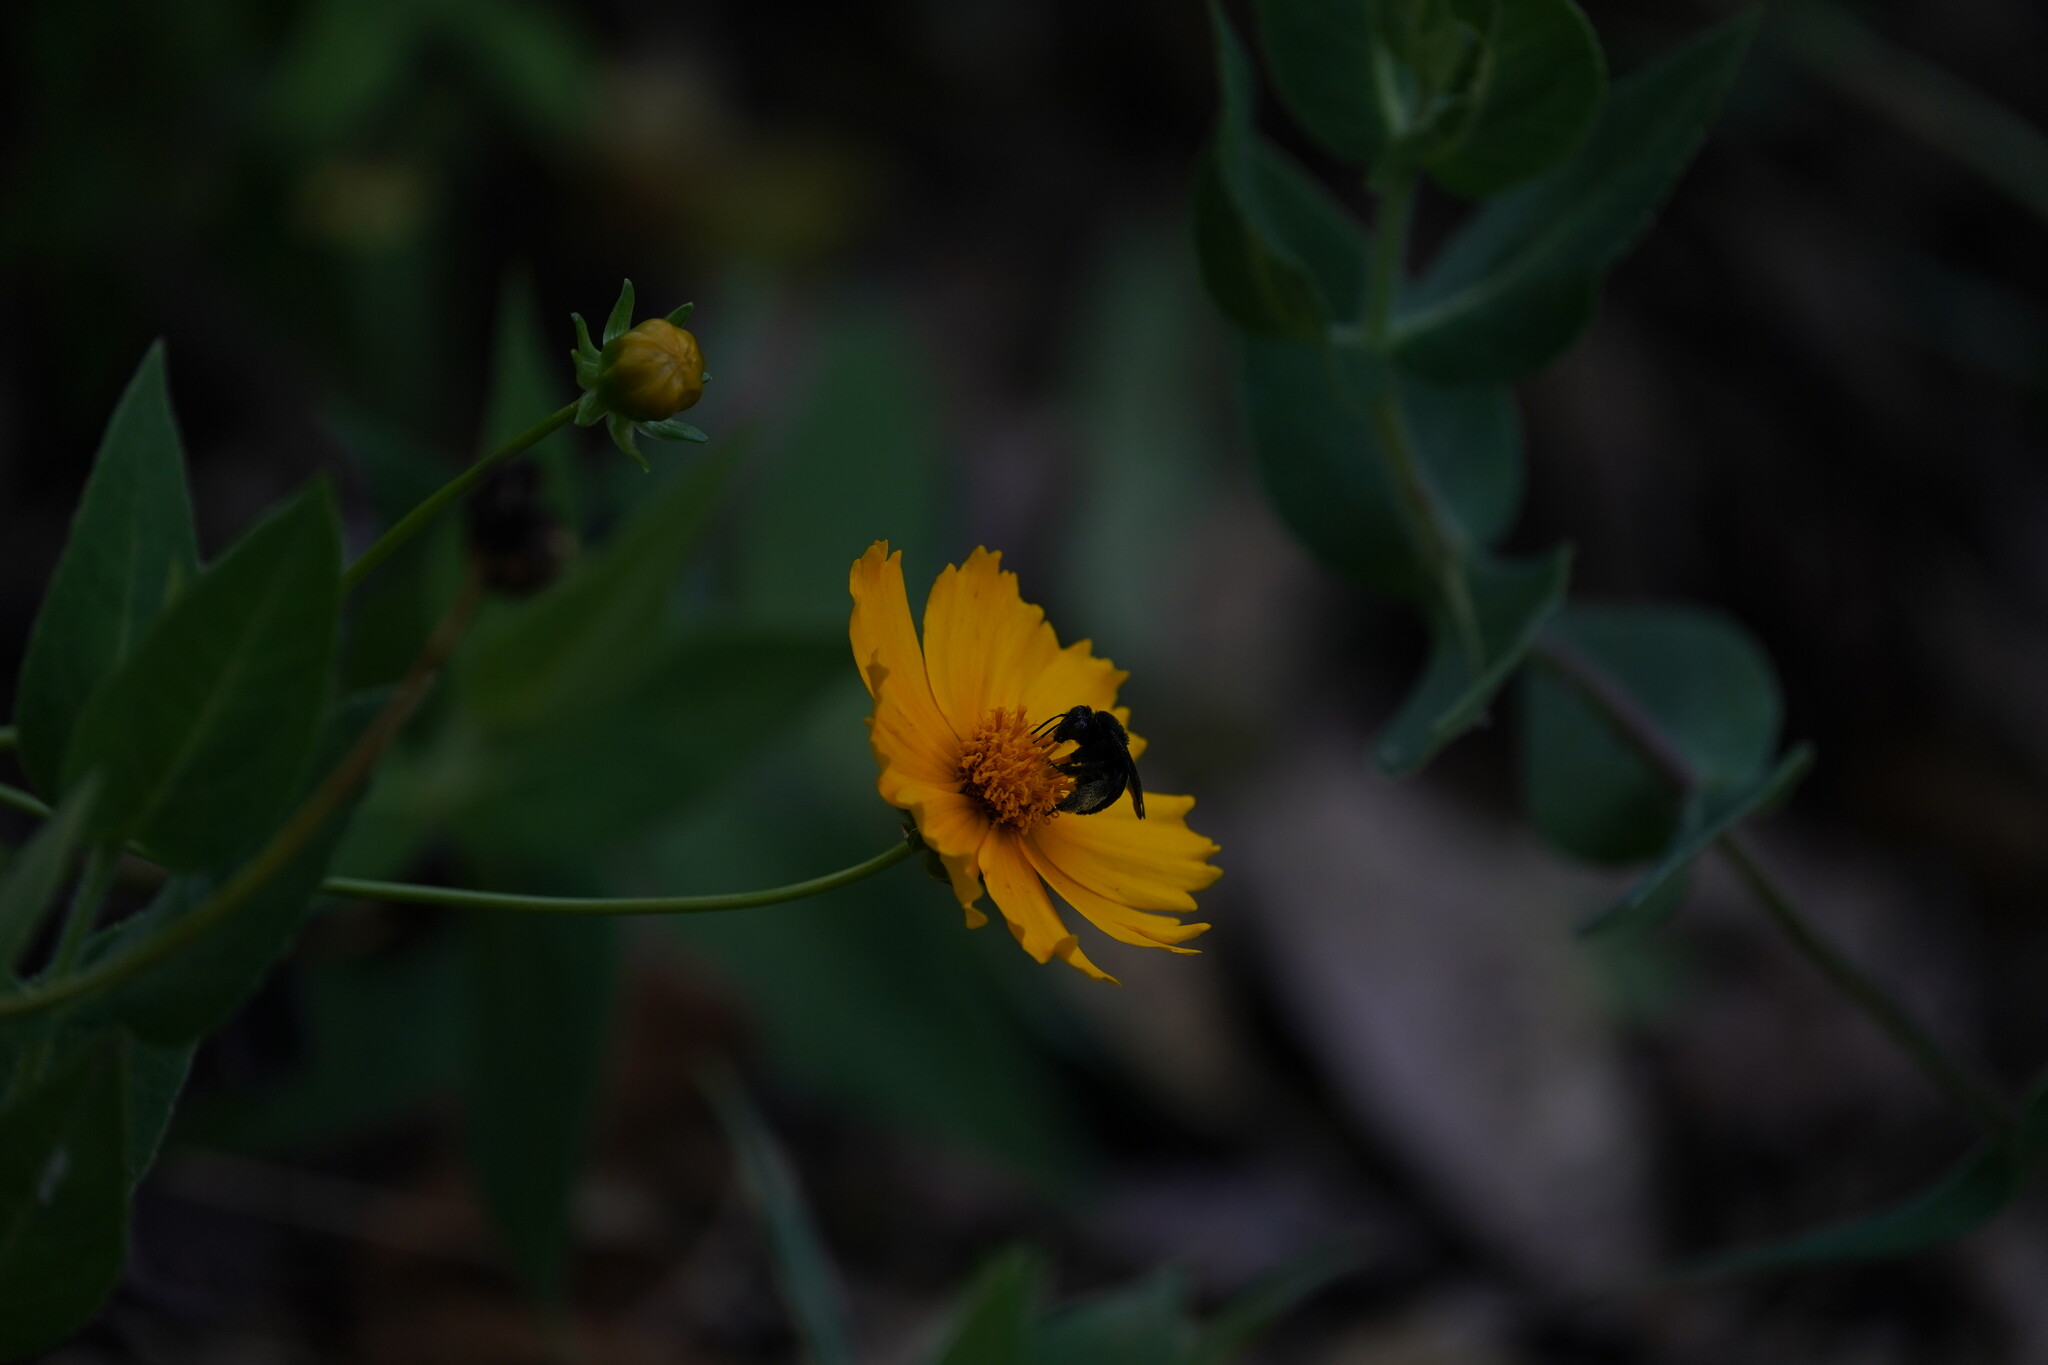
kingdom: Animalia
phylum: Arthropoda
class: Insecta
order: Hymenoptera
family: Apidae
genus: Melissodes
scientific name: Melissodes bimaculatus
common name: Two-spotted long-horned bee
